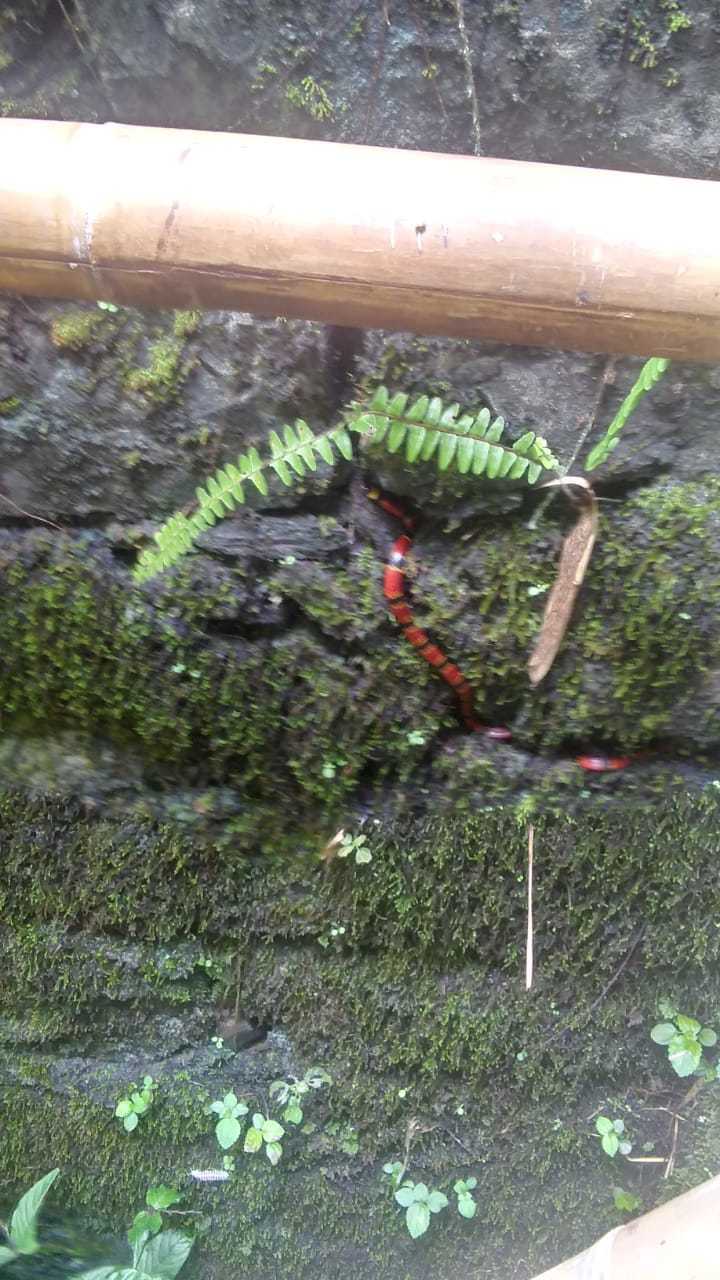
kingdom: Animalia
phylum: Chordata
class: Squamata
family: Elapidae
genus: Micrurus
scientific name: Micrurus tener
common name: Texas coral snake
